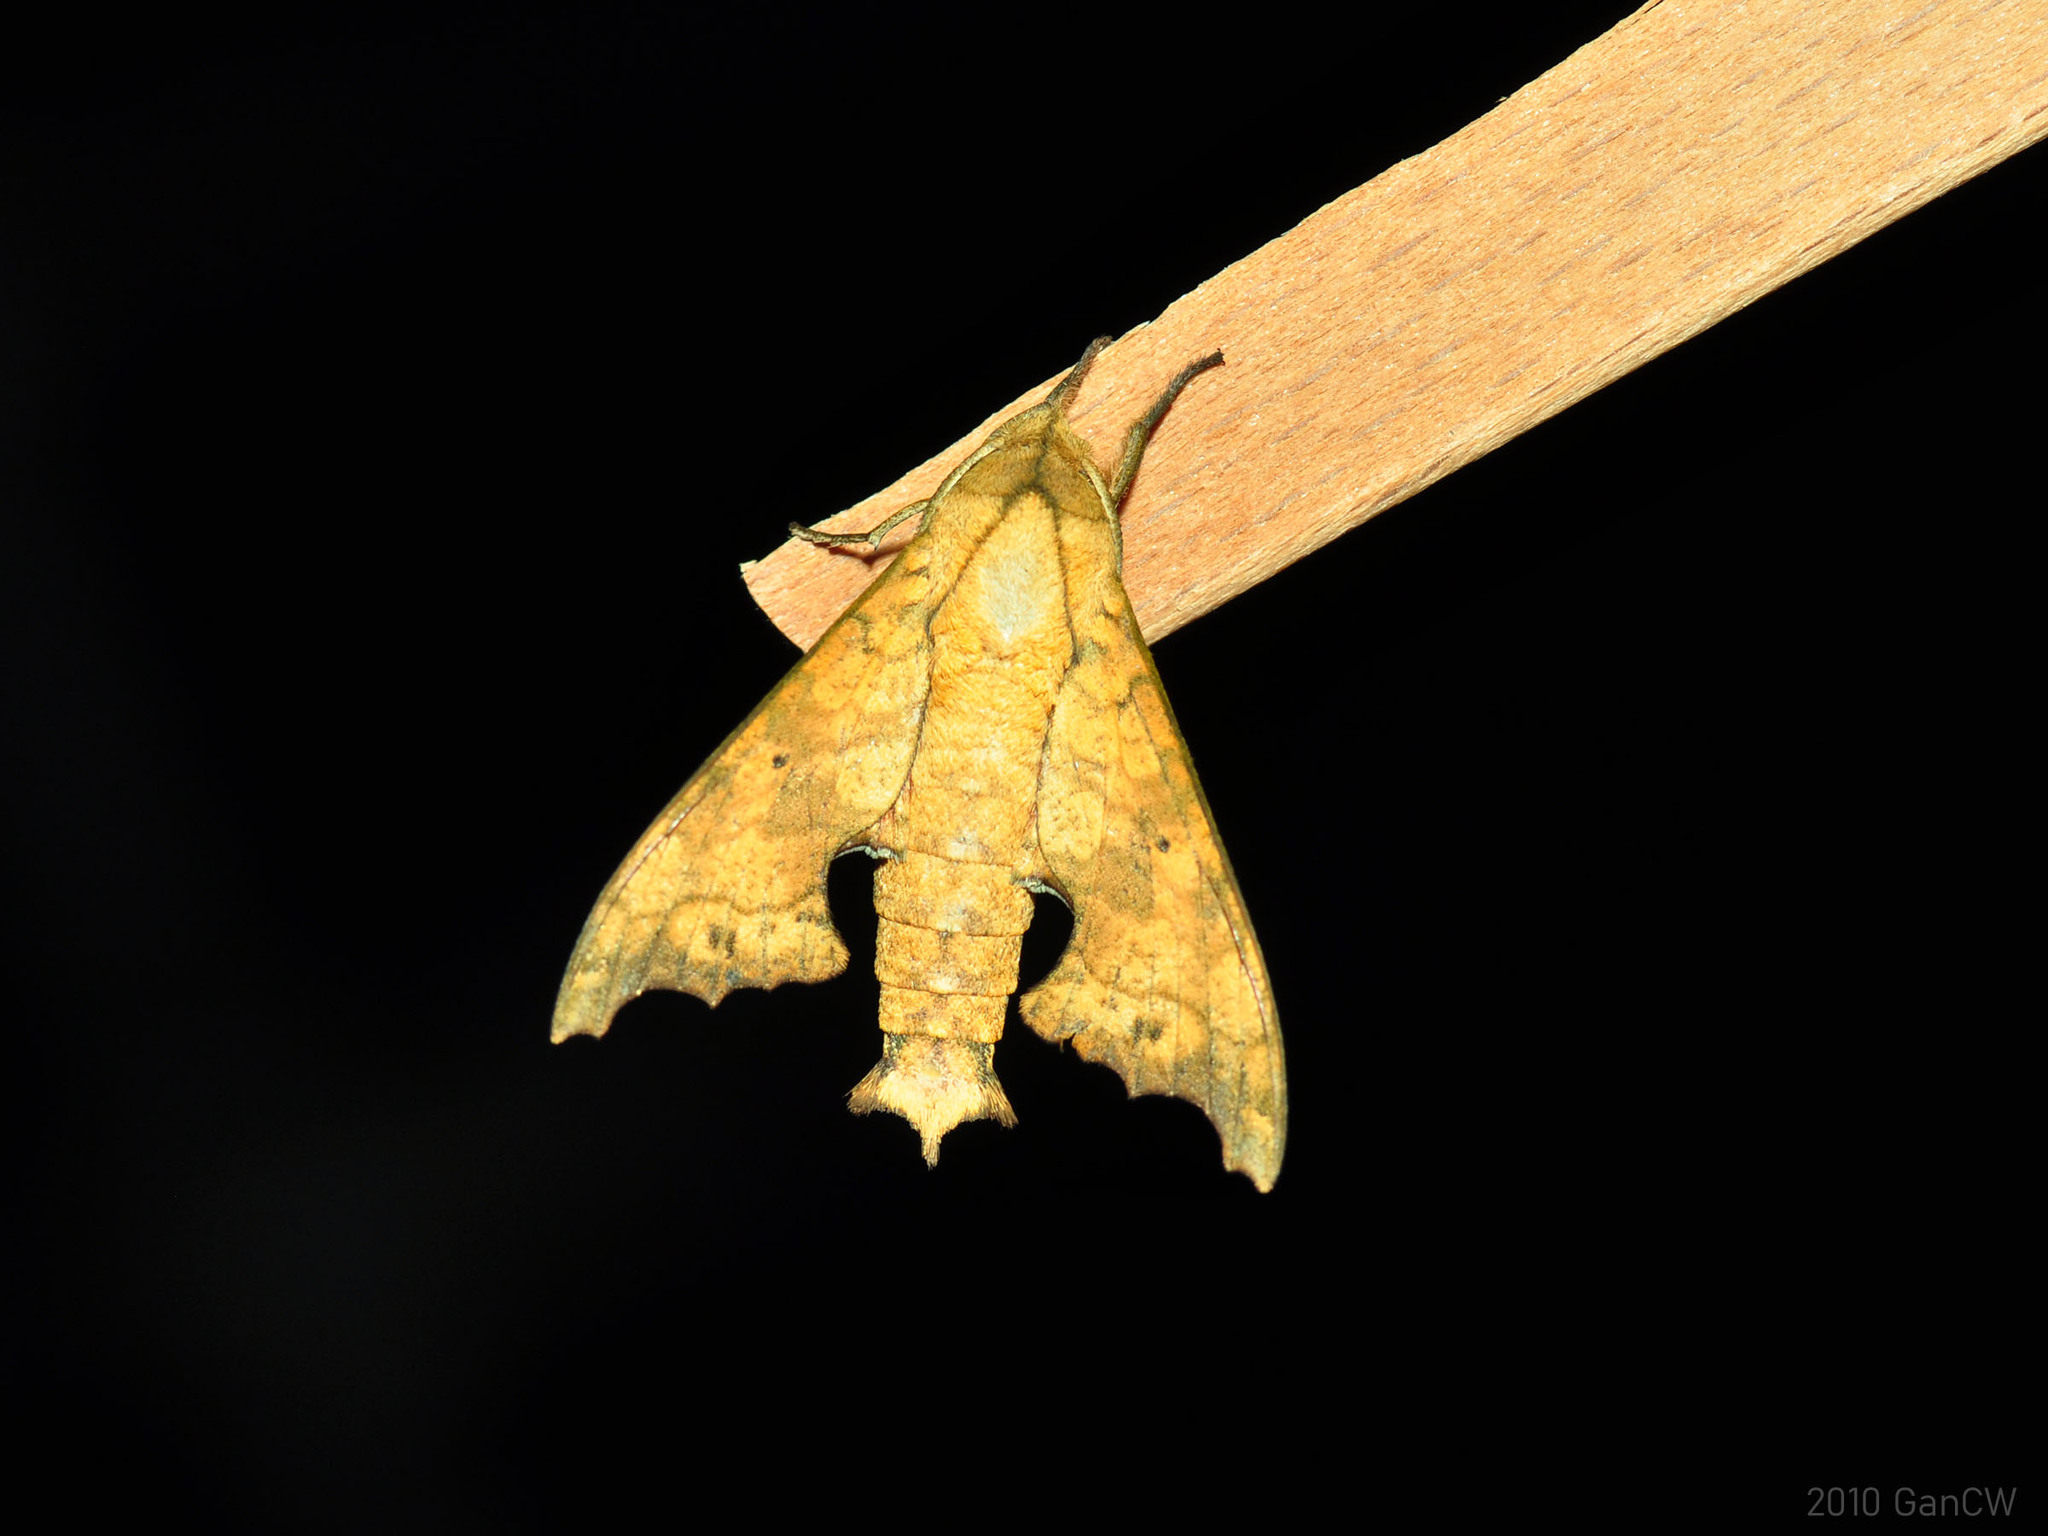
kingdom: Animalia
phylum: Arthropoda
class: Insecta
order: Lepidoptera
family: Sphingidae
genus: Smerinthulus
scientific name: Smerinthulus quadripunctatus
